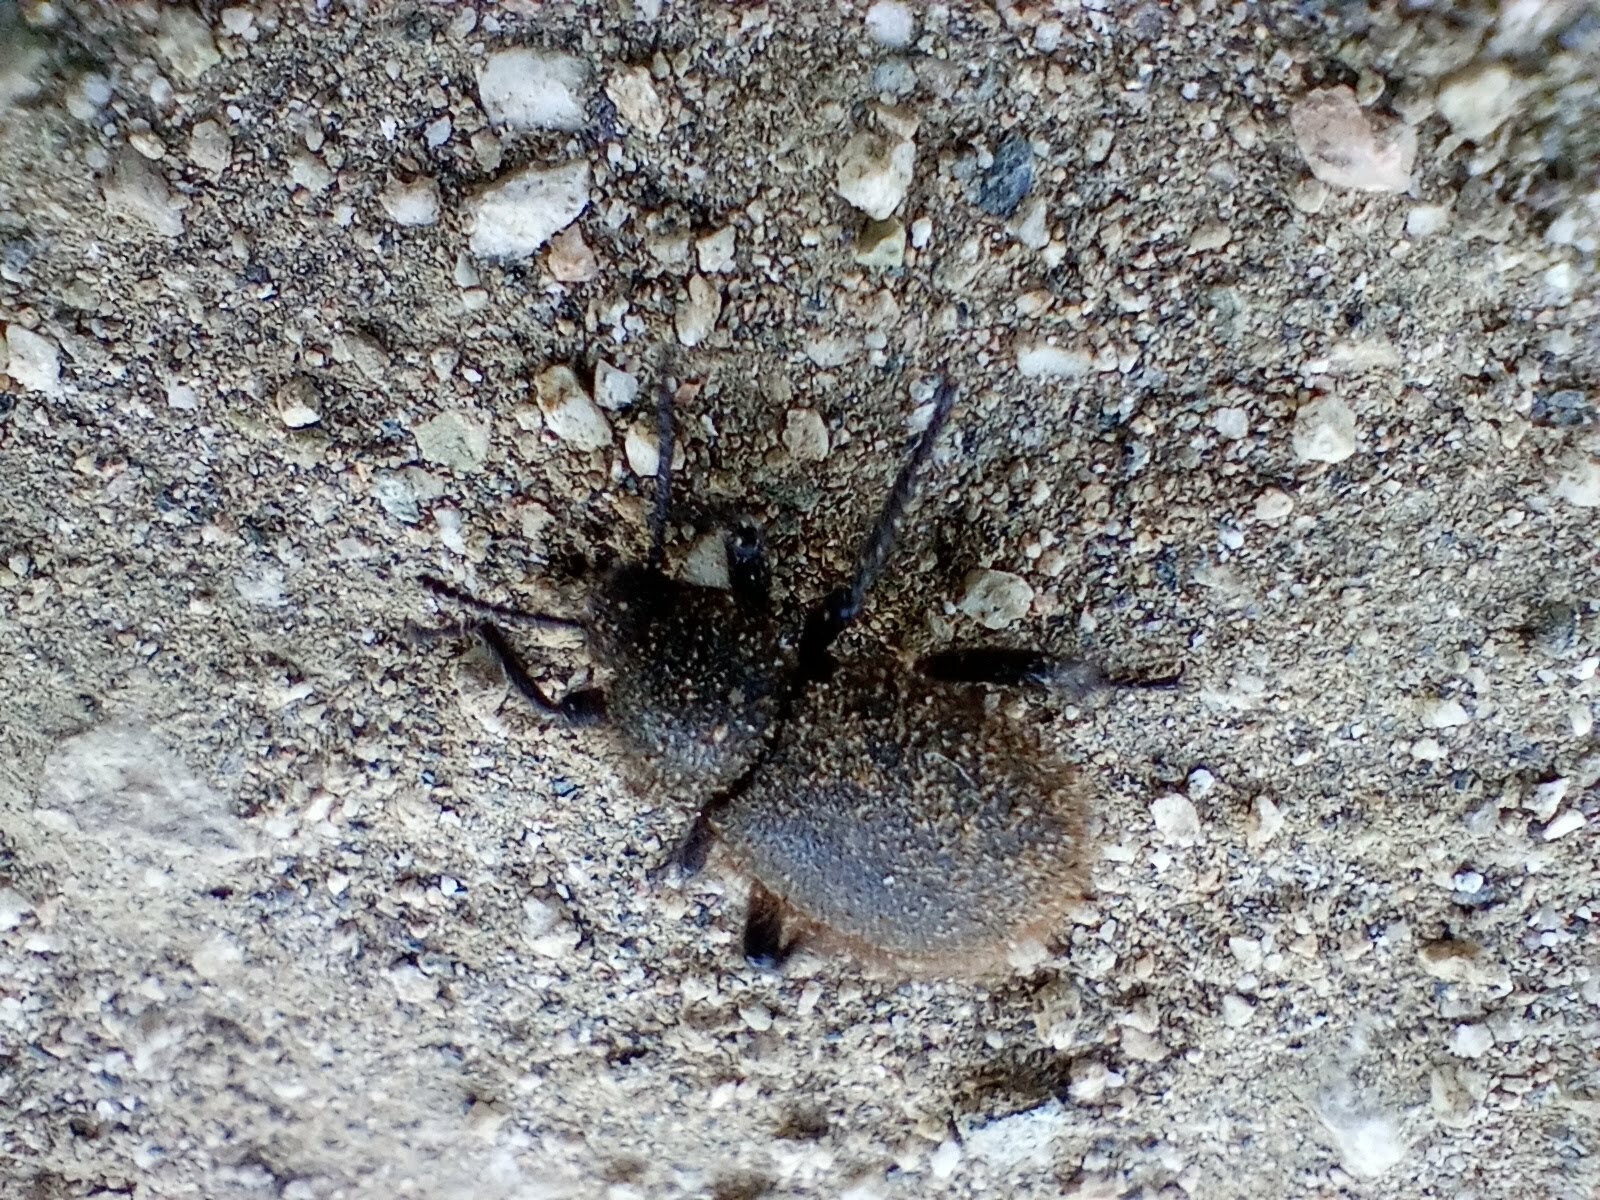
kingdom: Animalia
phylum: Arthropoda
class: Insecta
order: Coleoptera
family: Tenebrionidae
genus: Eleodes
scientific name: Eleodes osculans
